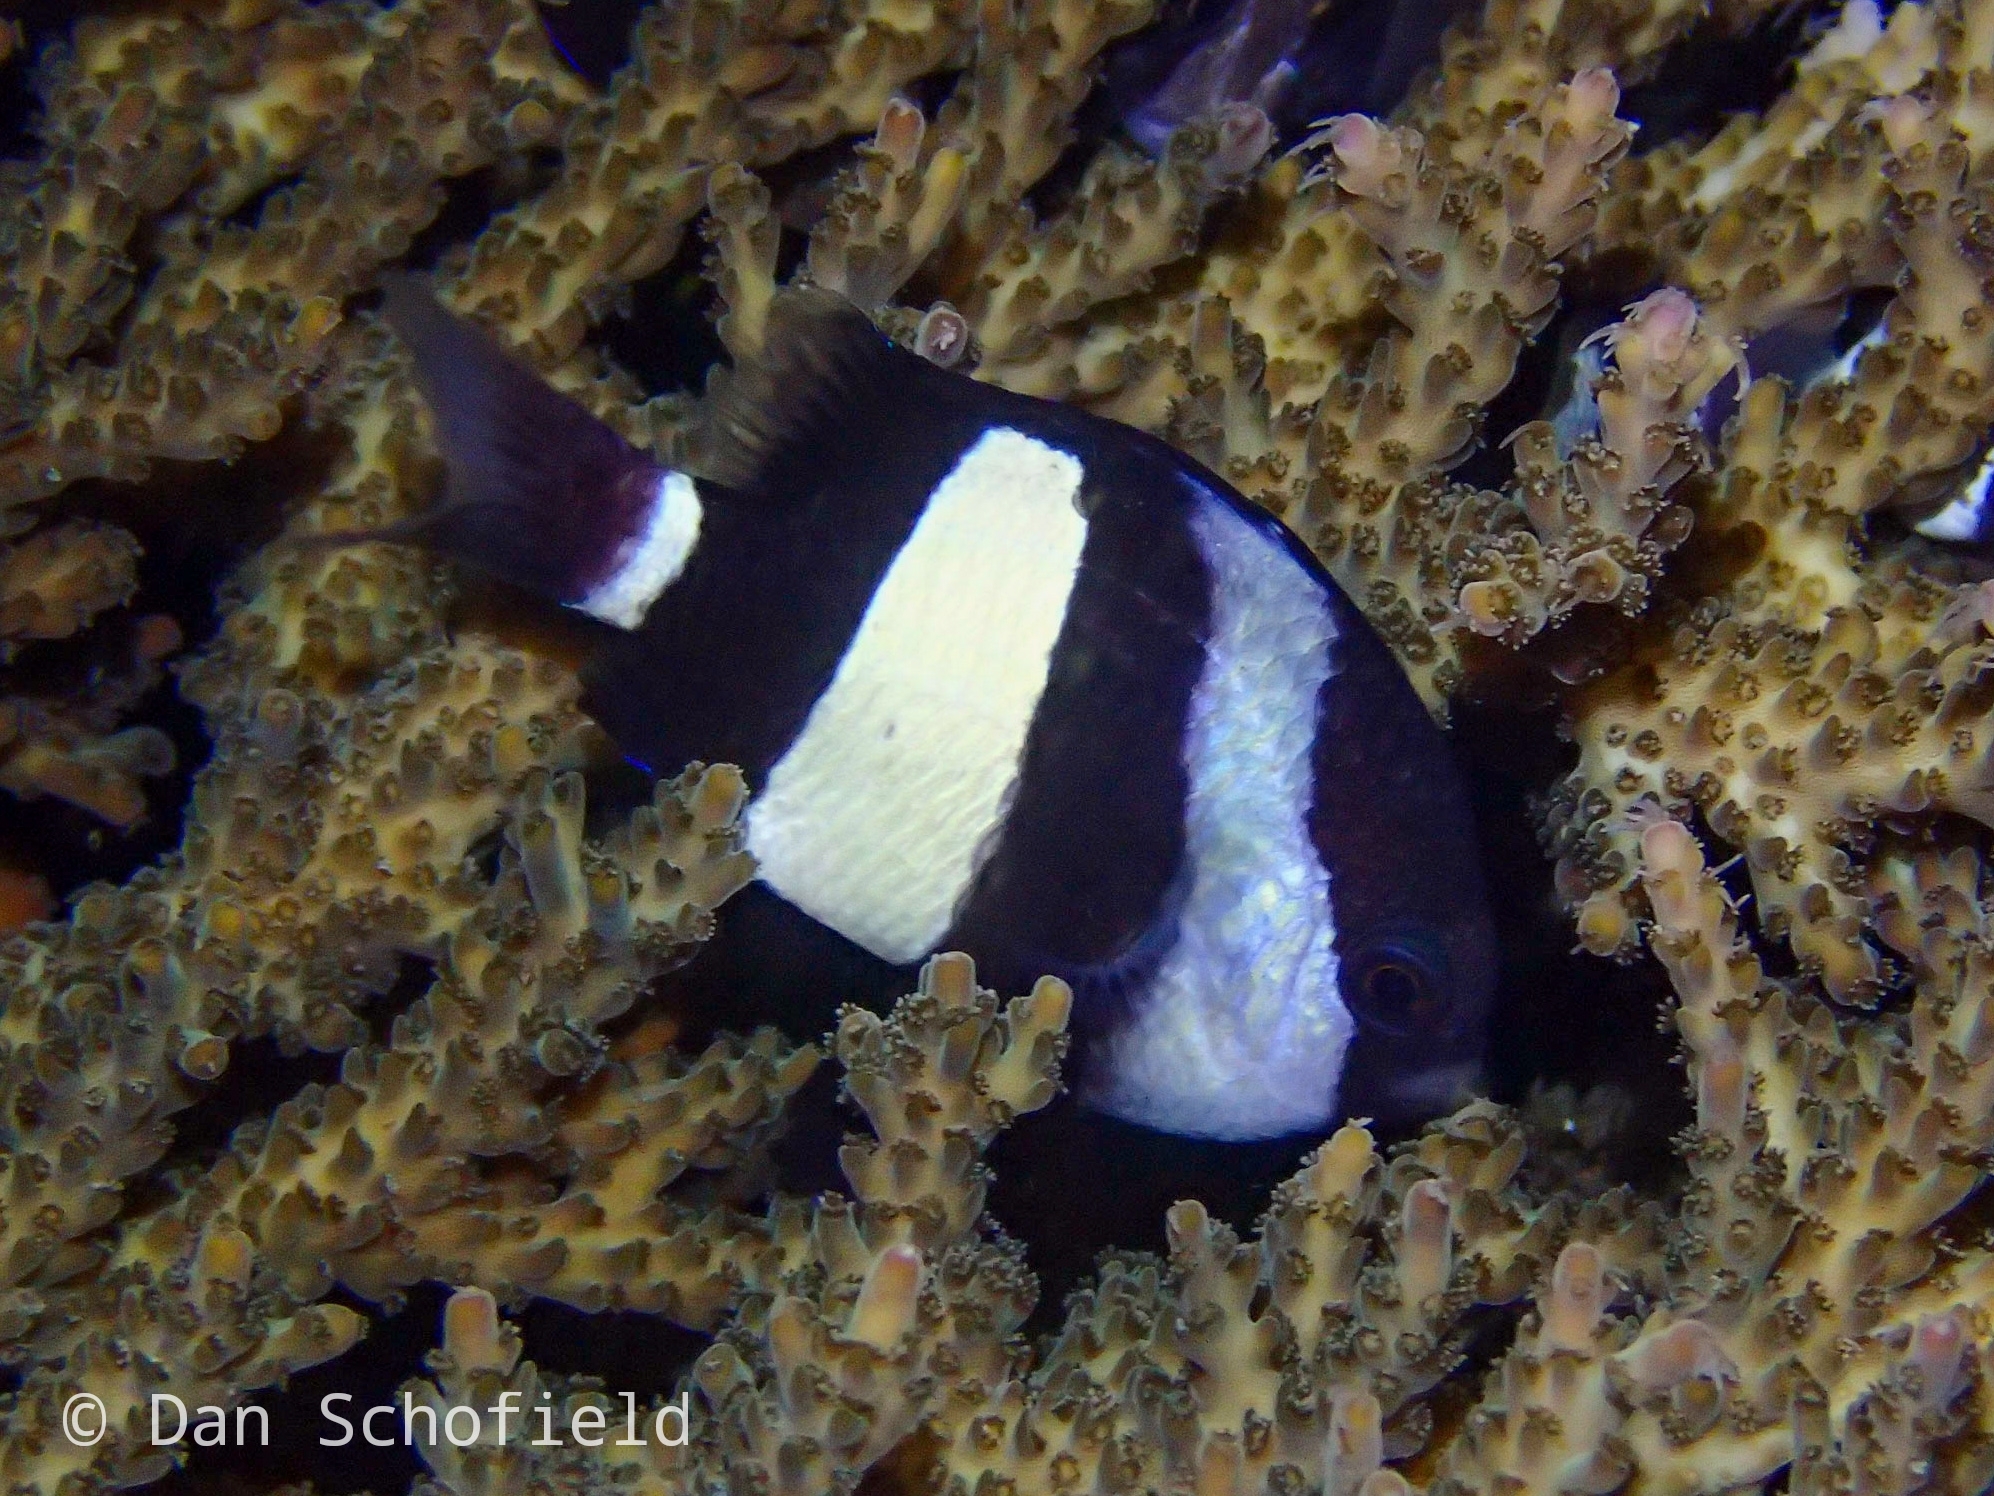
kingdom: Animalia
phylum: Chordata
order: Perciformes
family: Pomacentridae
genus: Dascyllus
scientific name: Dascyllus aruanus
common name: Humbug dascyllus
